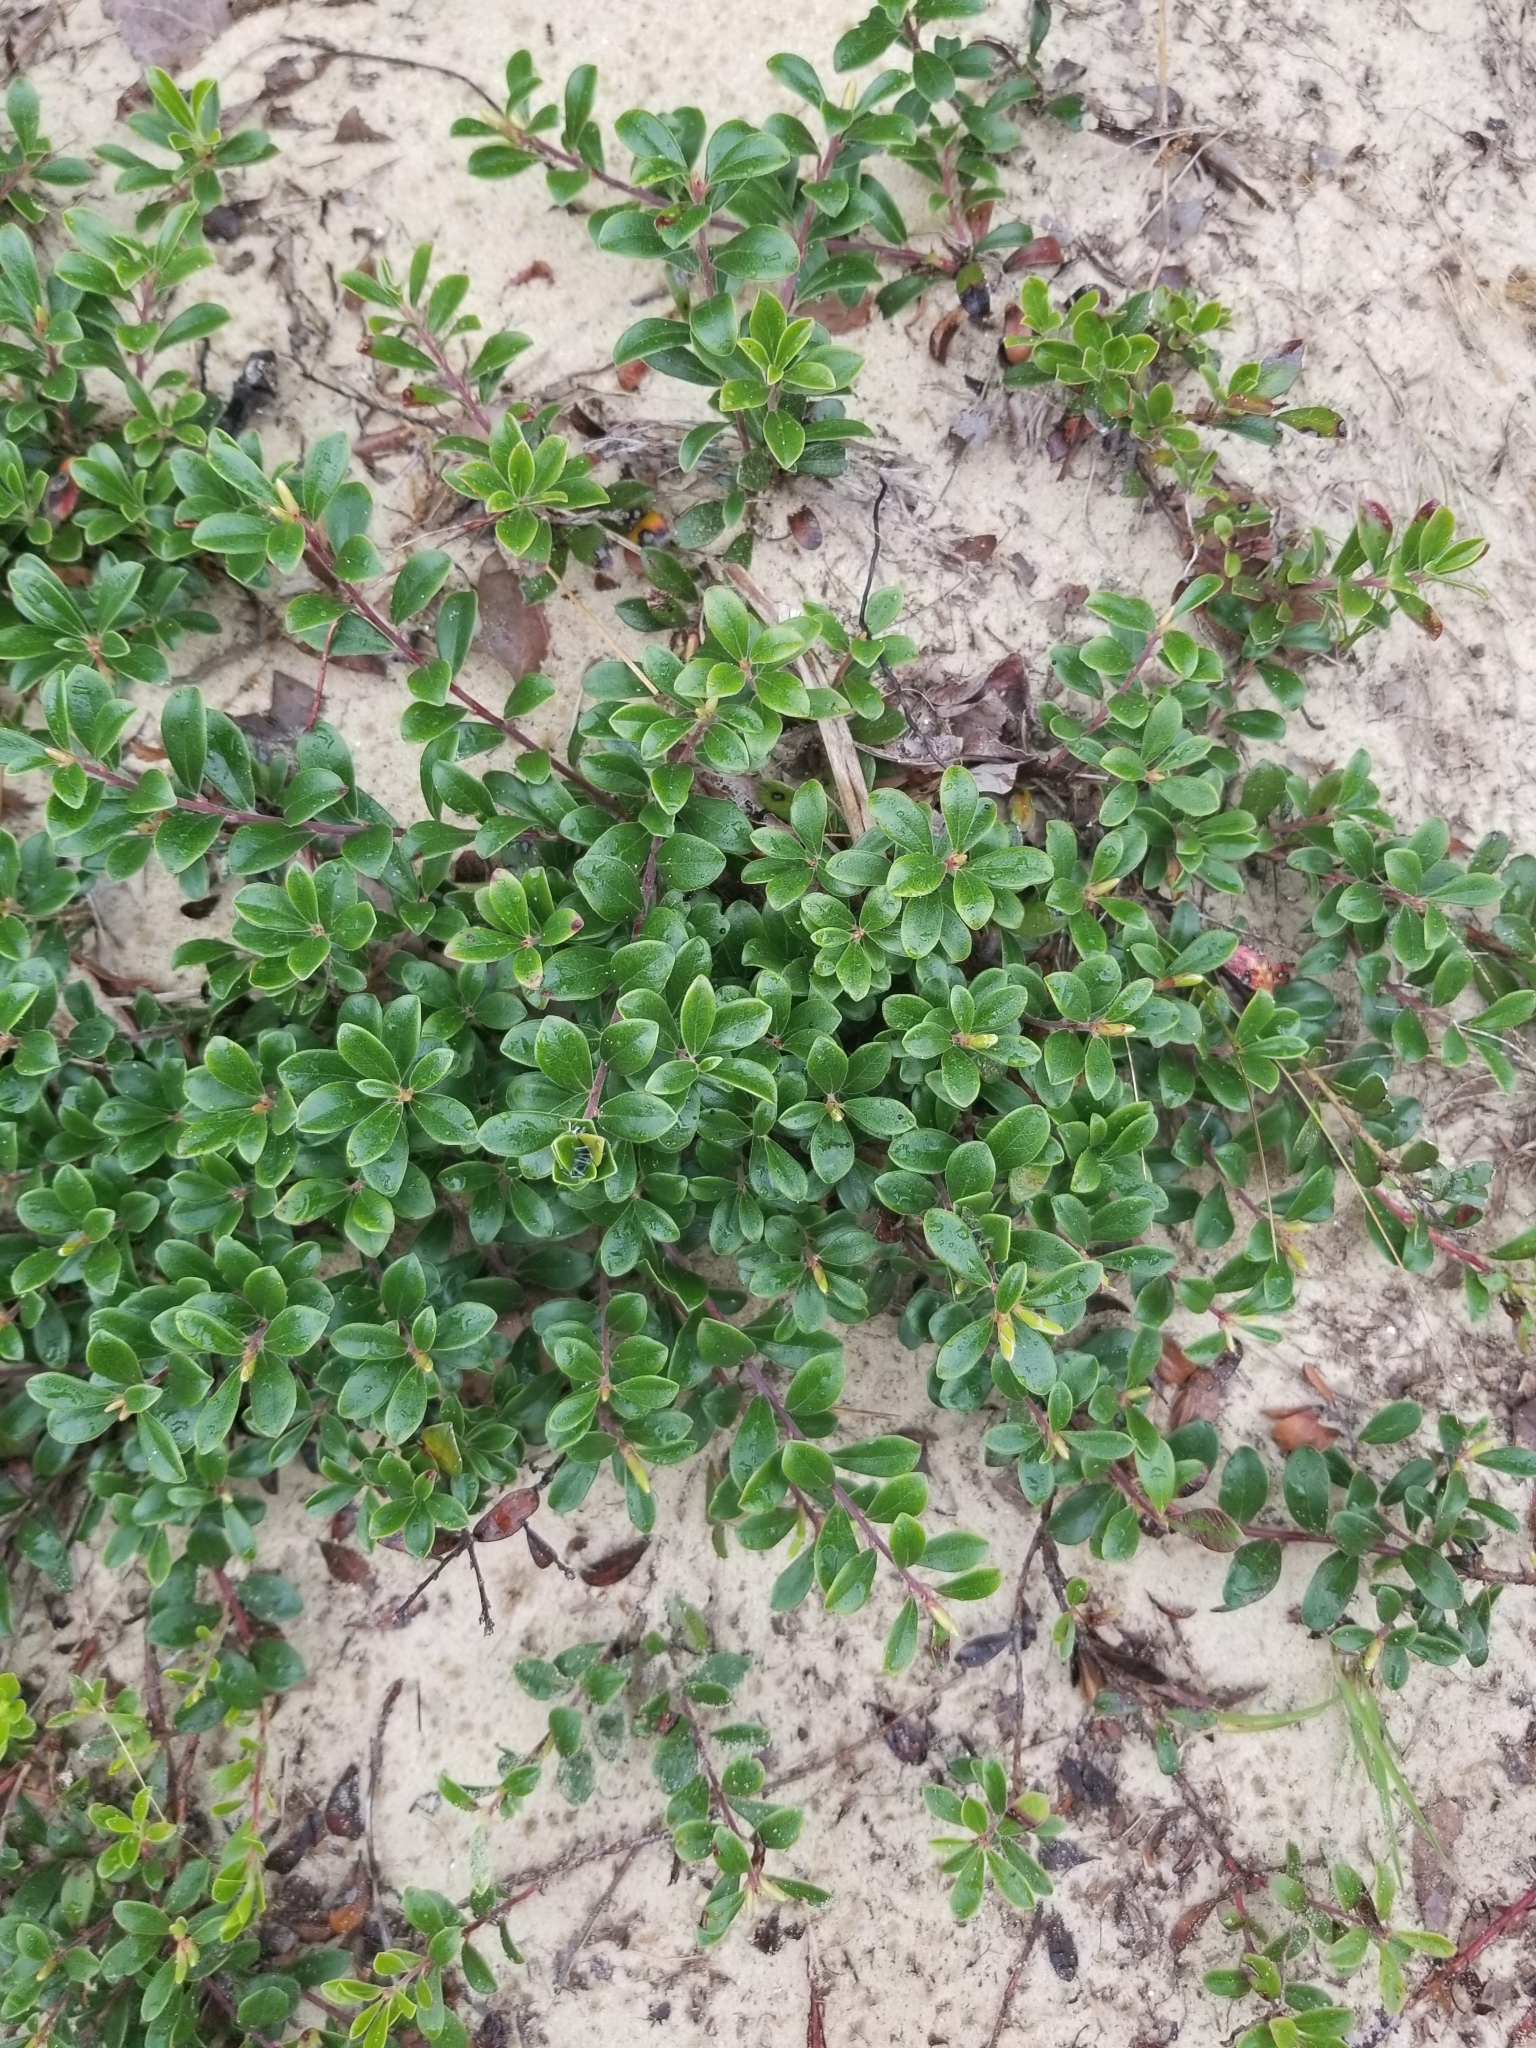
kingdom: Plantae
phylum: Tracheophyta
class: Magnoliopsida
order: Ericales
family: Ericaceae
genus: Arctostaphylos
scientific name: Arctostaphylos uva-ursi
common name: Bearberry
